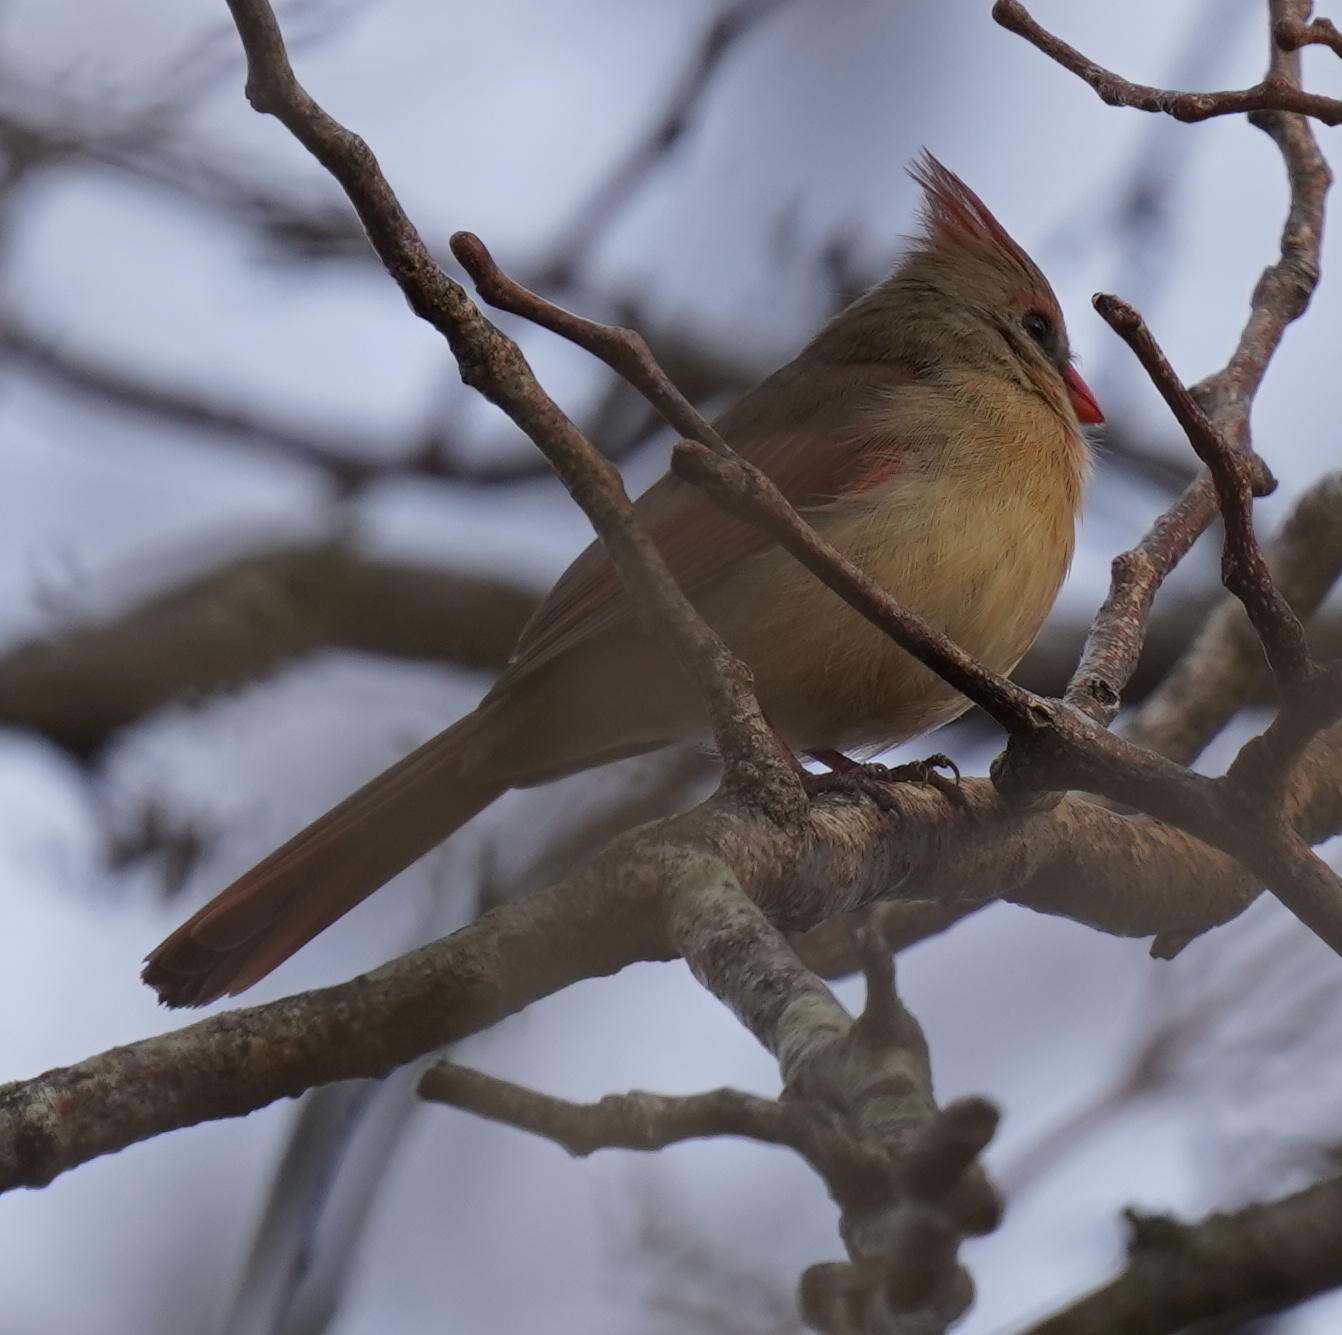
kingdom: Animalia
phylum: Chordata
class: Aves
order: Passeriformes
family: Cardinalidae
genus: Cardinalis
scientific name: Cardinalis cardinalis
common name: Northern cardinal
